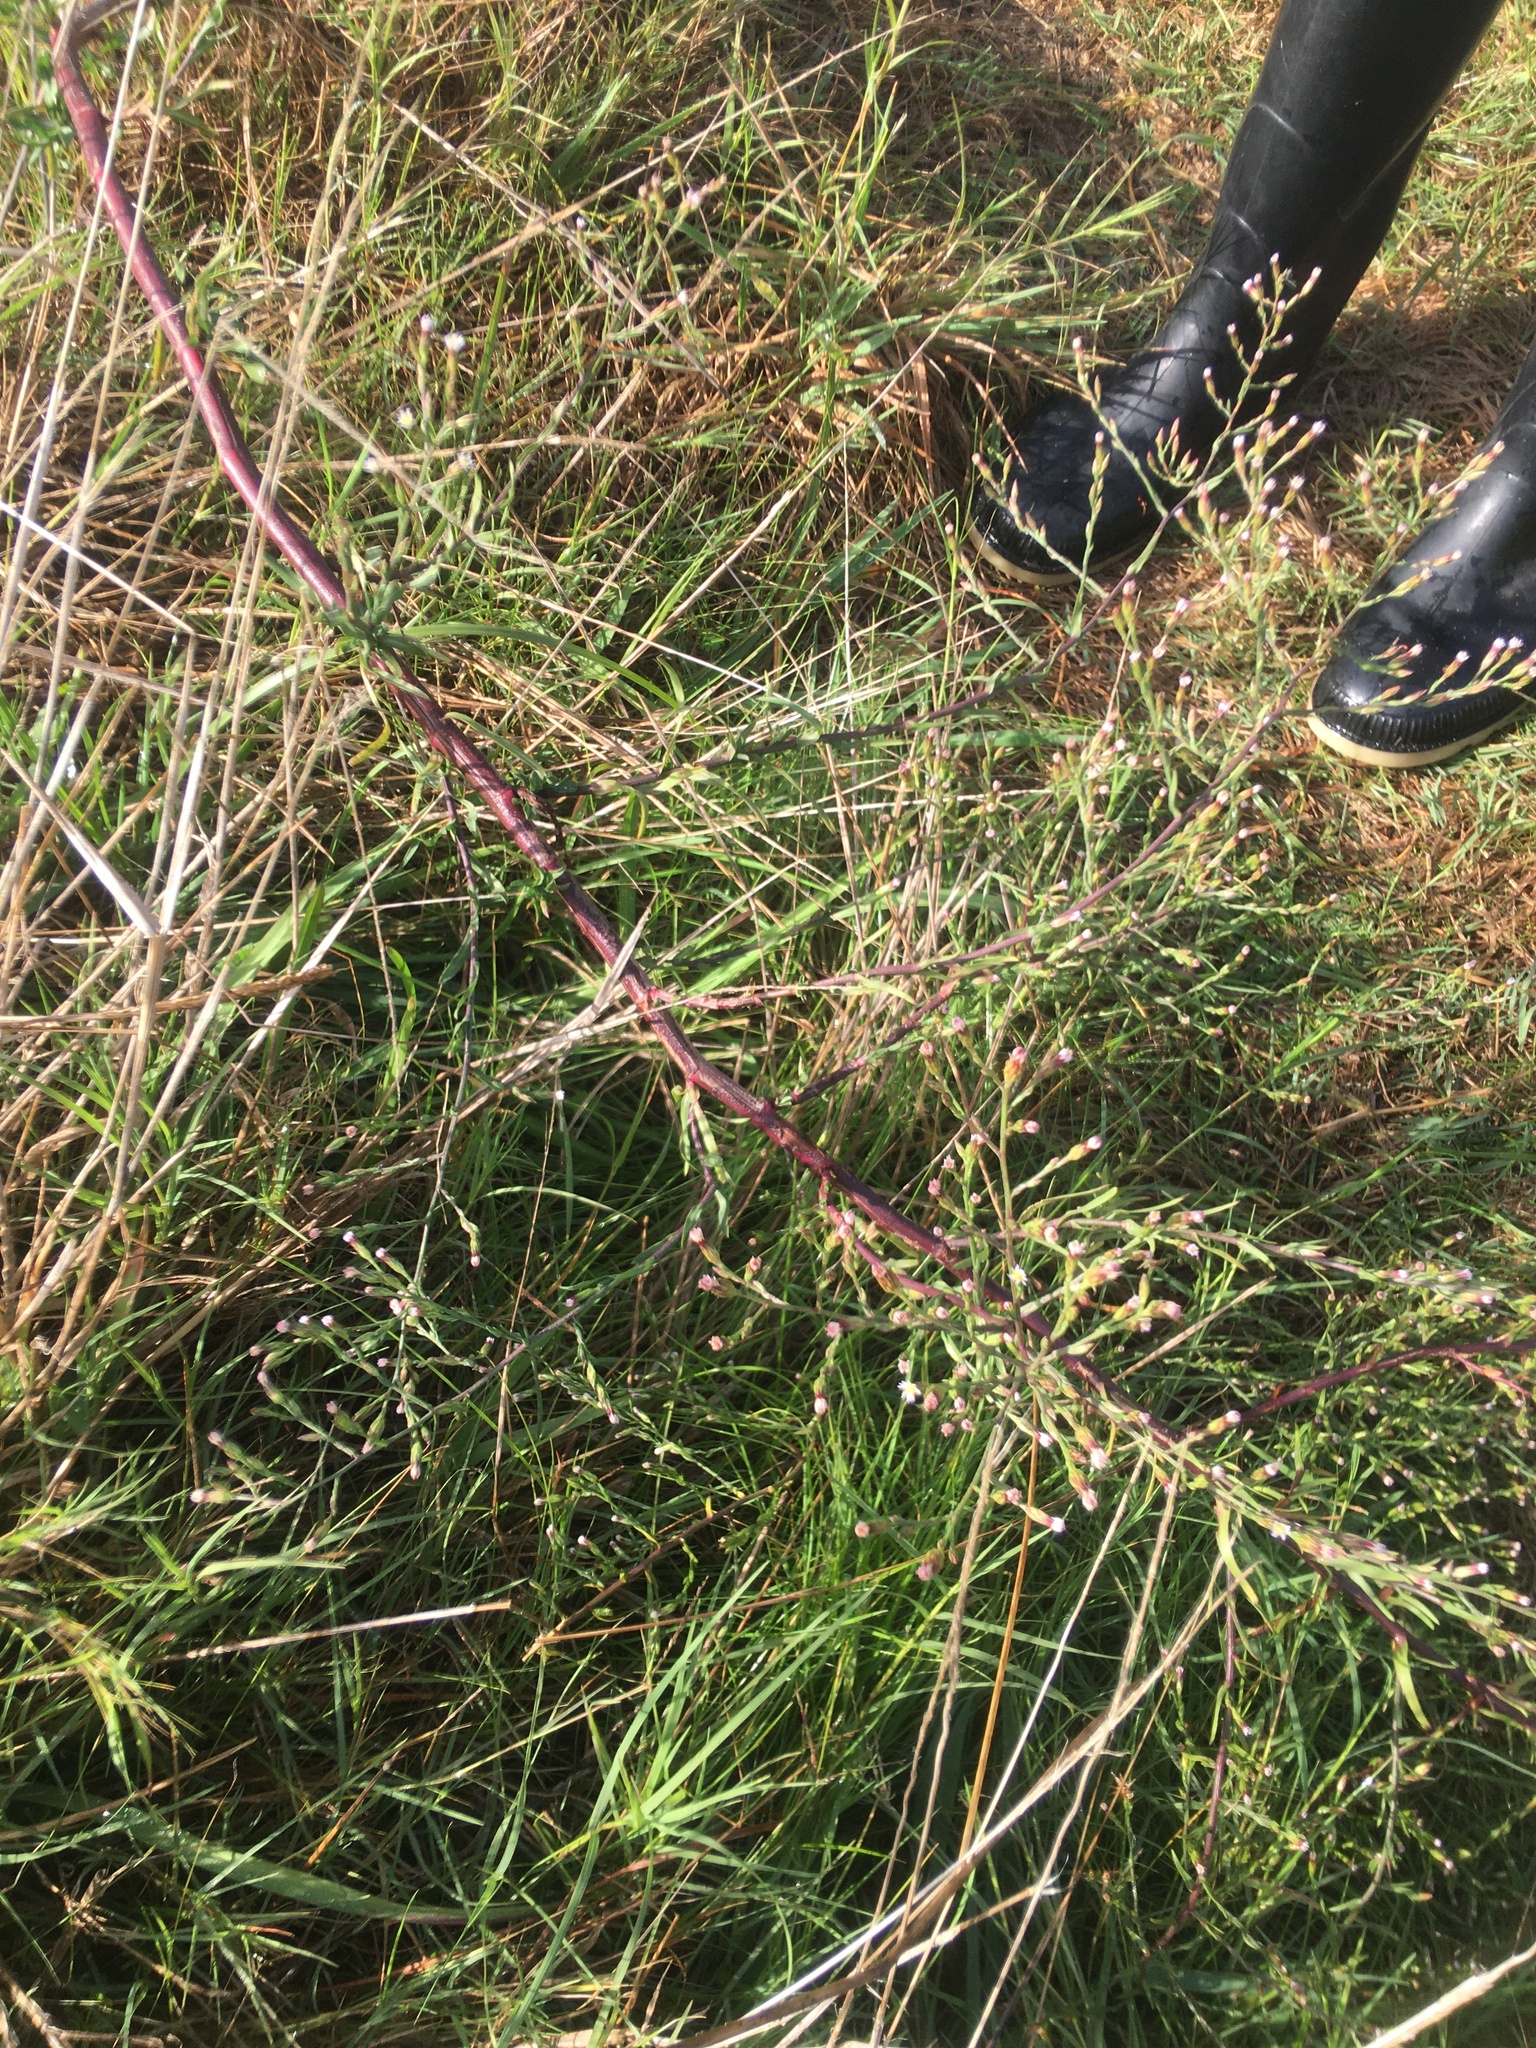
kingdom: Plantae
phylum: Tracheophyta
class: Magnoliopsida
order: Asterales
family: Asteraceae
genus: Symphyotrichum
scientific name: Symphyotrichum squamatum
